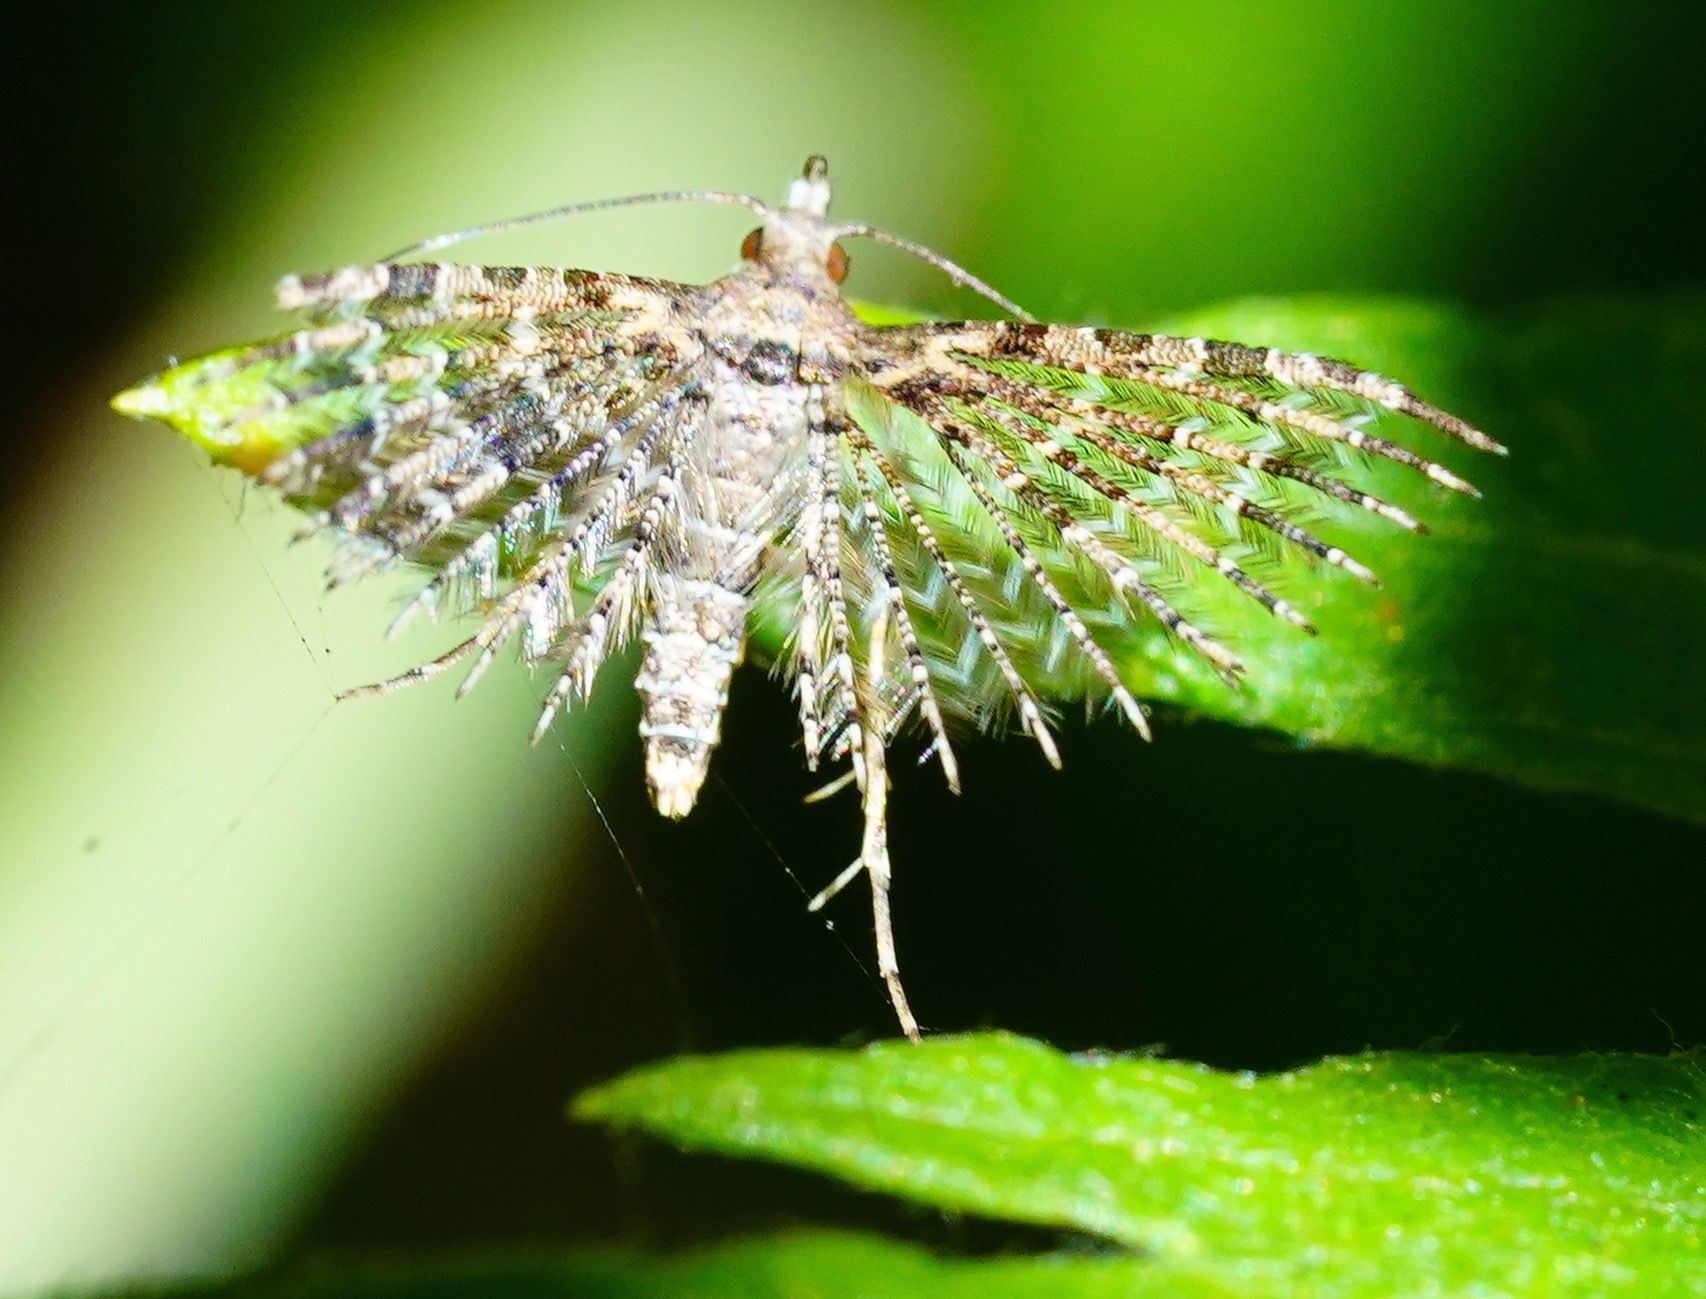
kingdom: Animalia
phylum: Arthropoda
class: Insecta
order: Lepidoptera
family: Alucitidae
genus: Alucita
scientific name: Alucita montana
